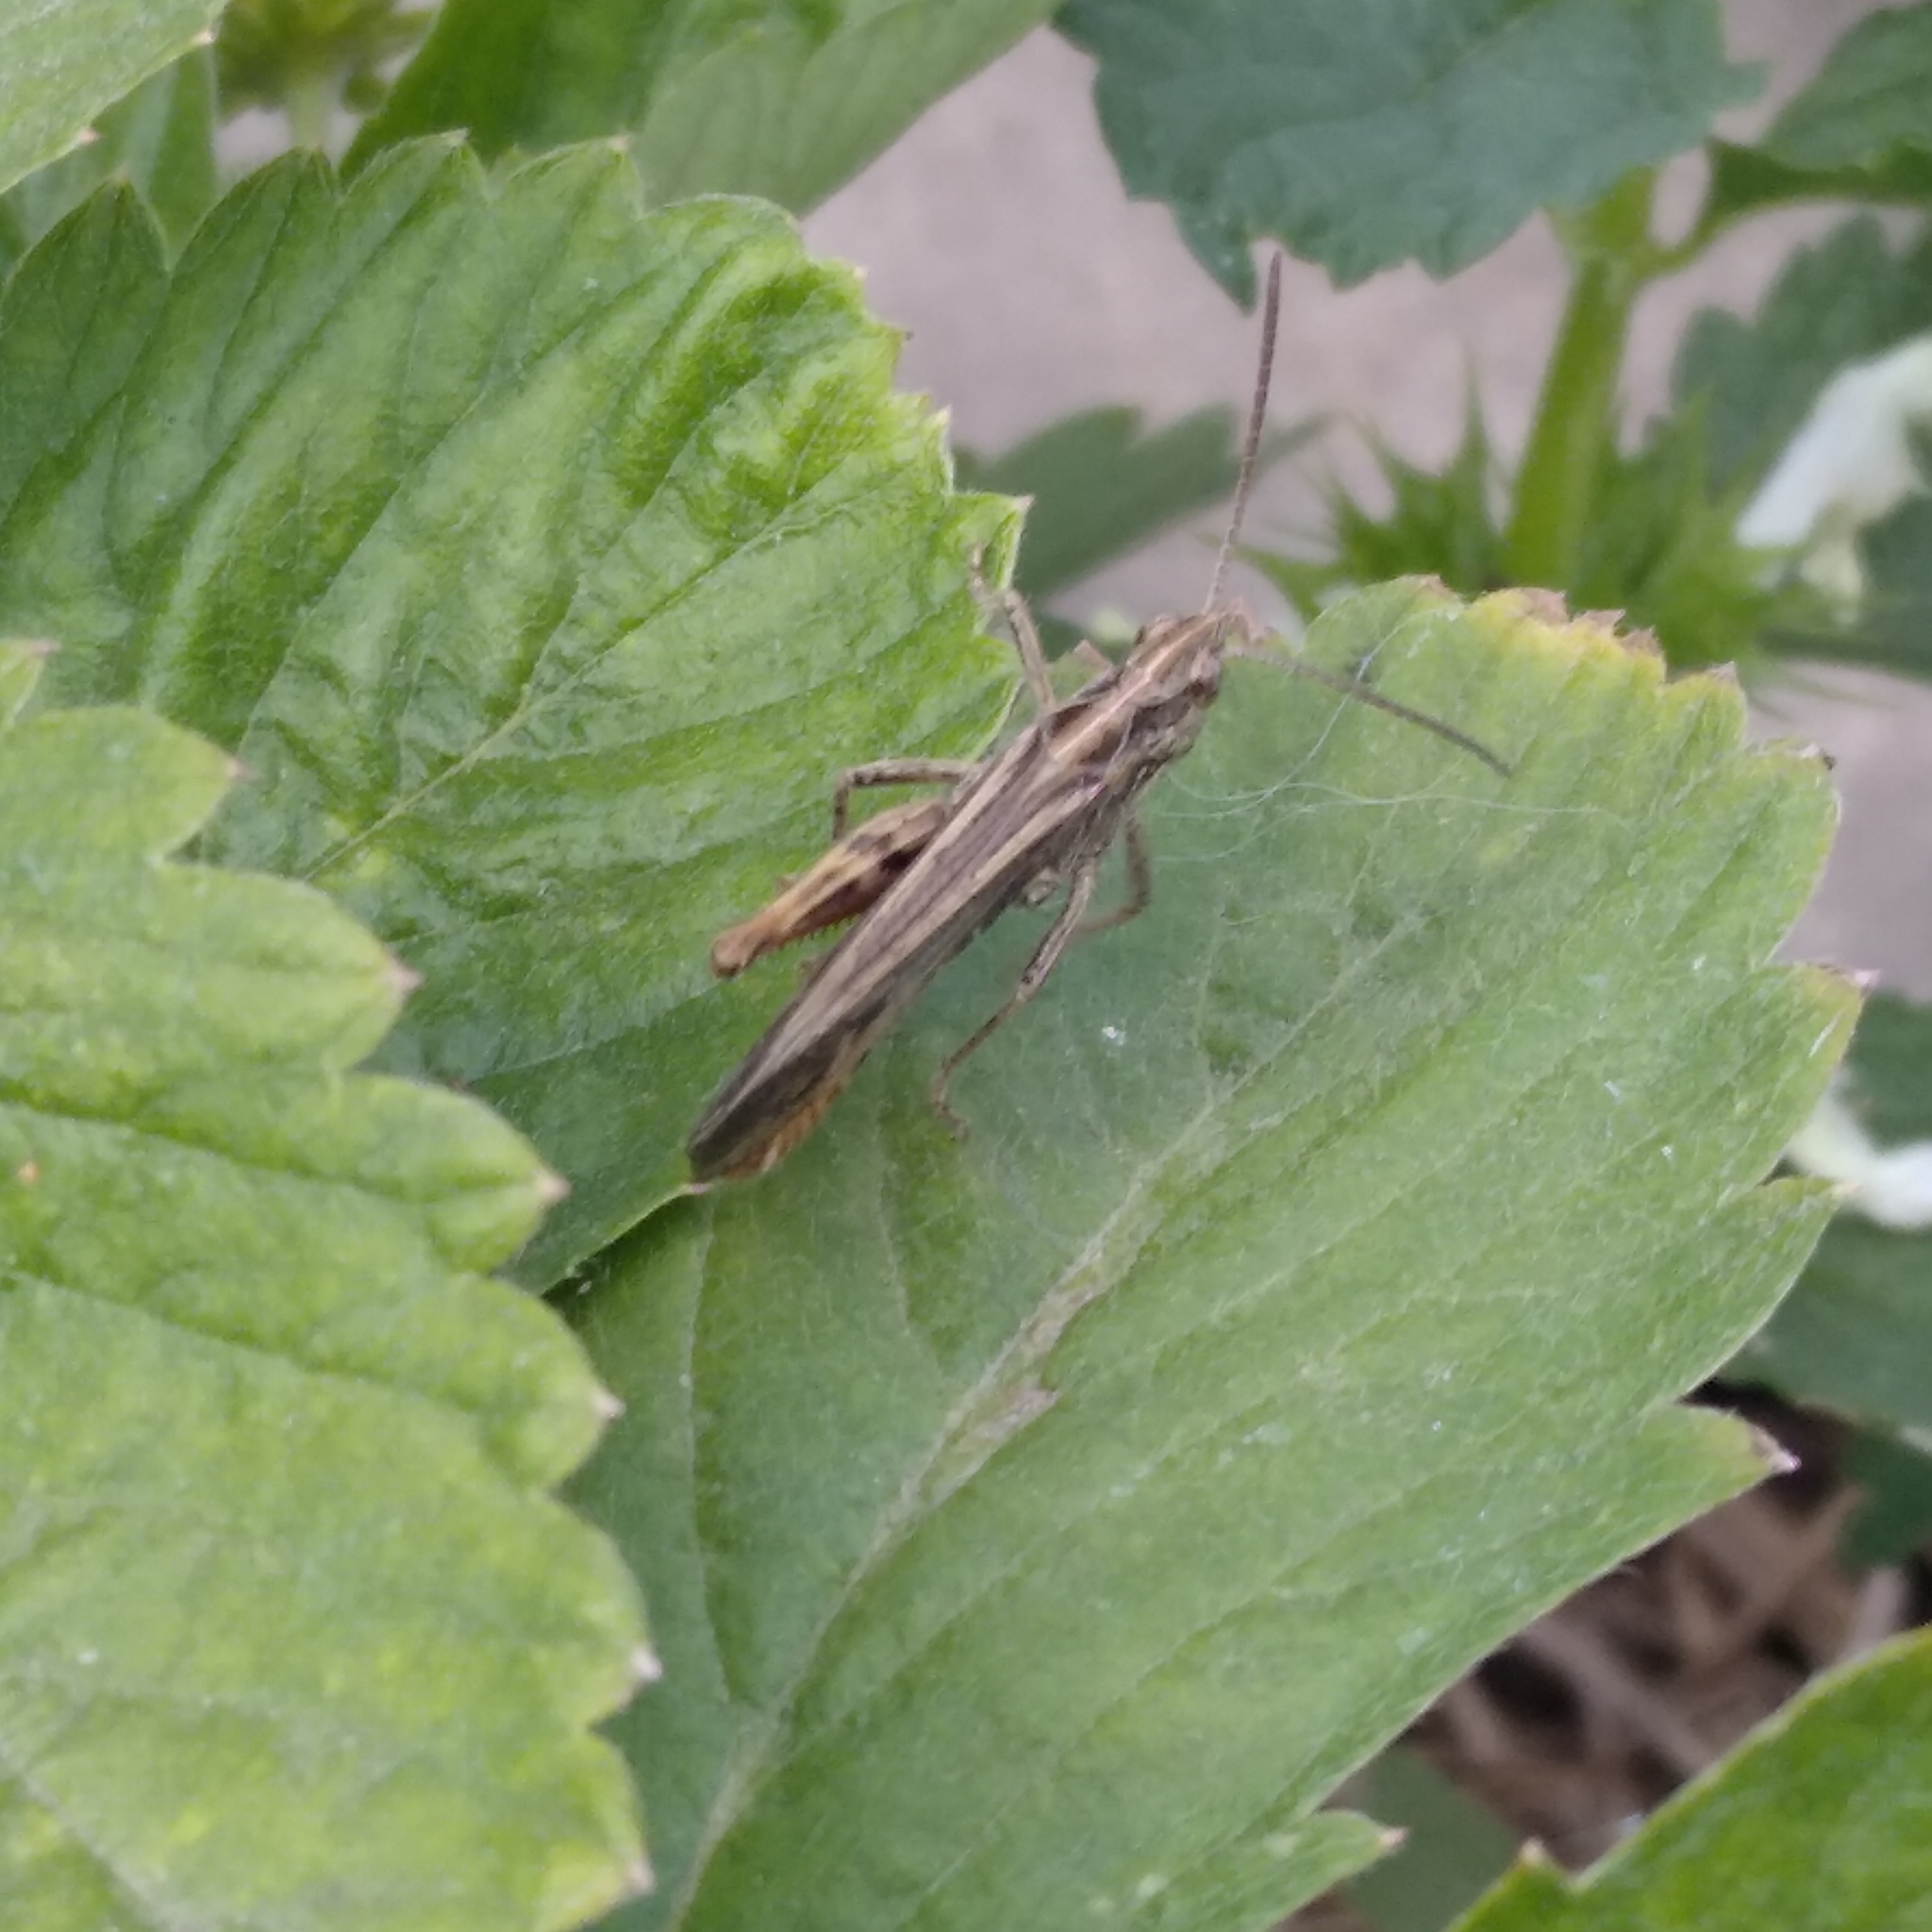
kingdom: Animalia
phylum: Arthropoda
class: Insecta
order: Orthoptera
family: Acrididae
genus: Chorthippus
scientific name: Chorthippus biguttulus
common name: Bow-winged grasshopper
